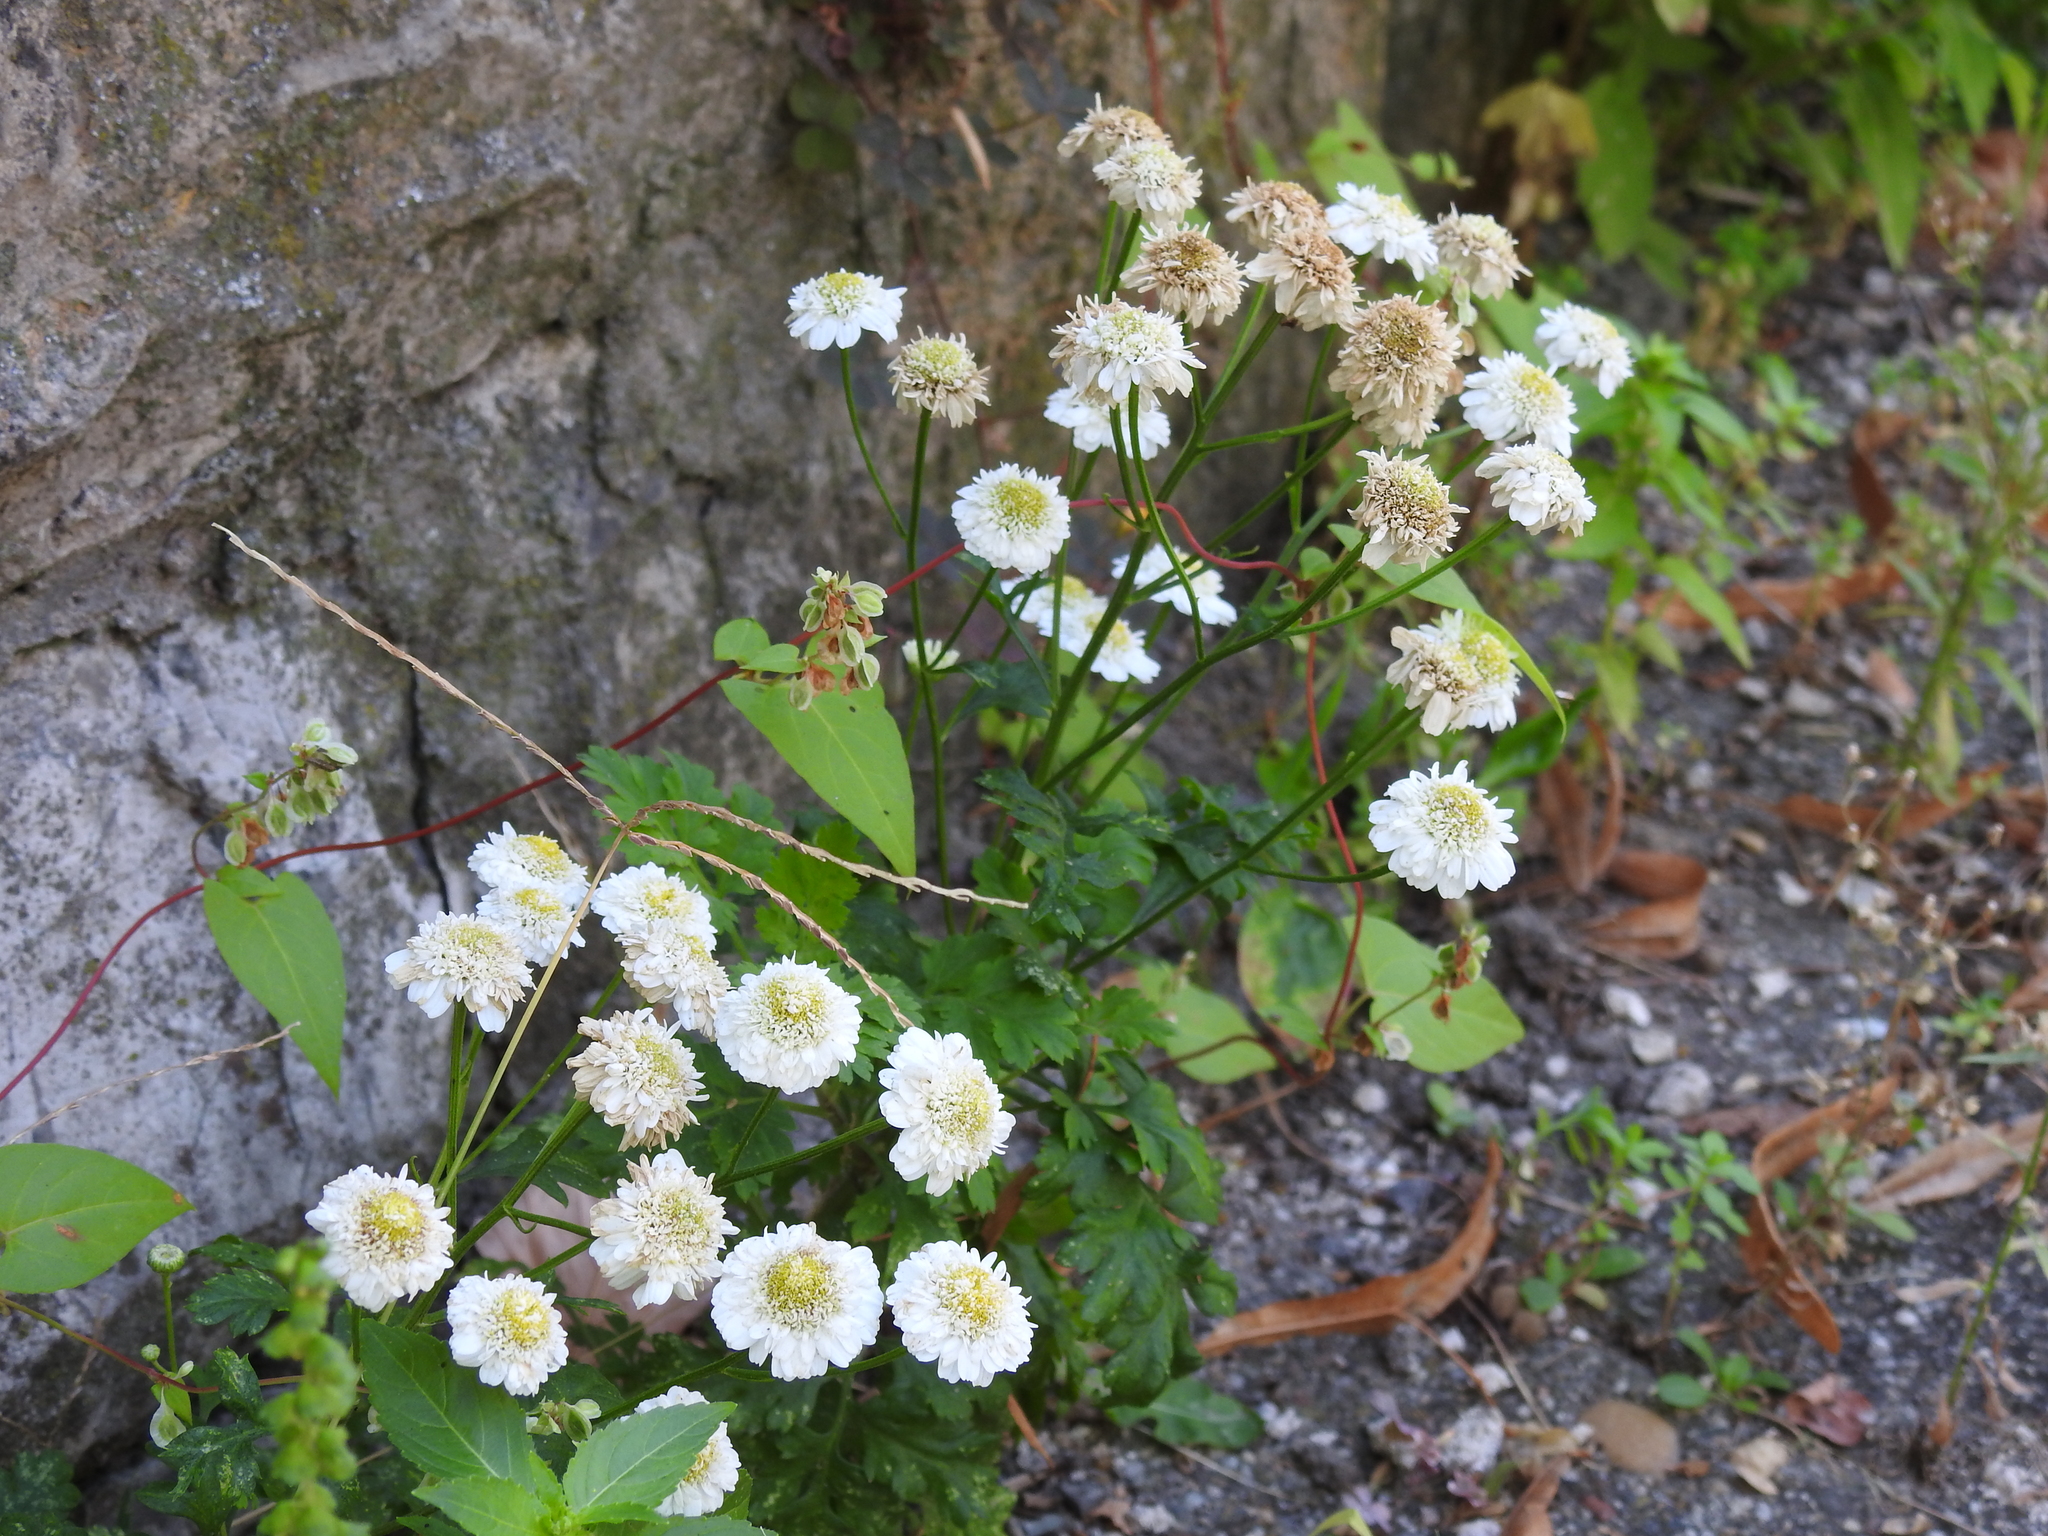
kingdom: Plantae
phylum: Tracheophyta
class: Magnoliopsida
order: Asterales
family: Asteraceae
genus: Tanacetum
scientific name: Tanacetum parthenium
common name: Feverfew
